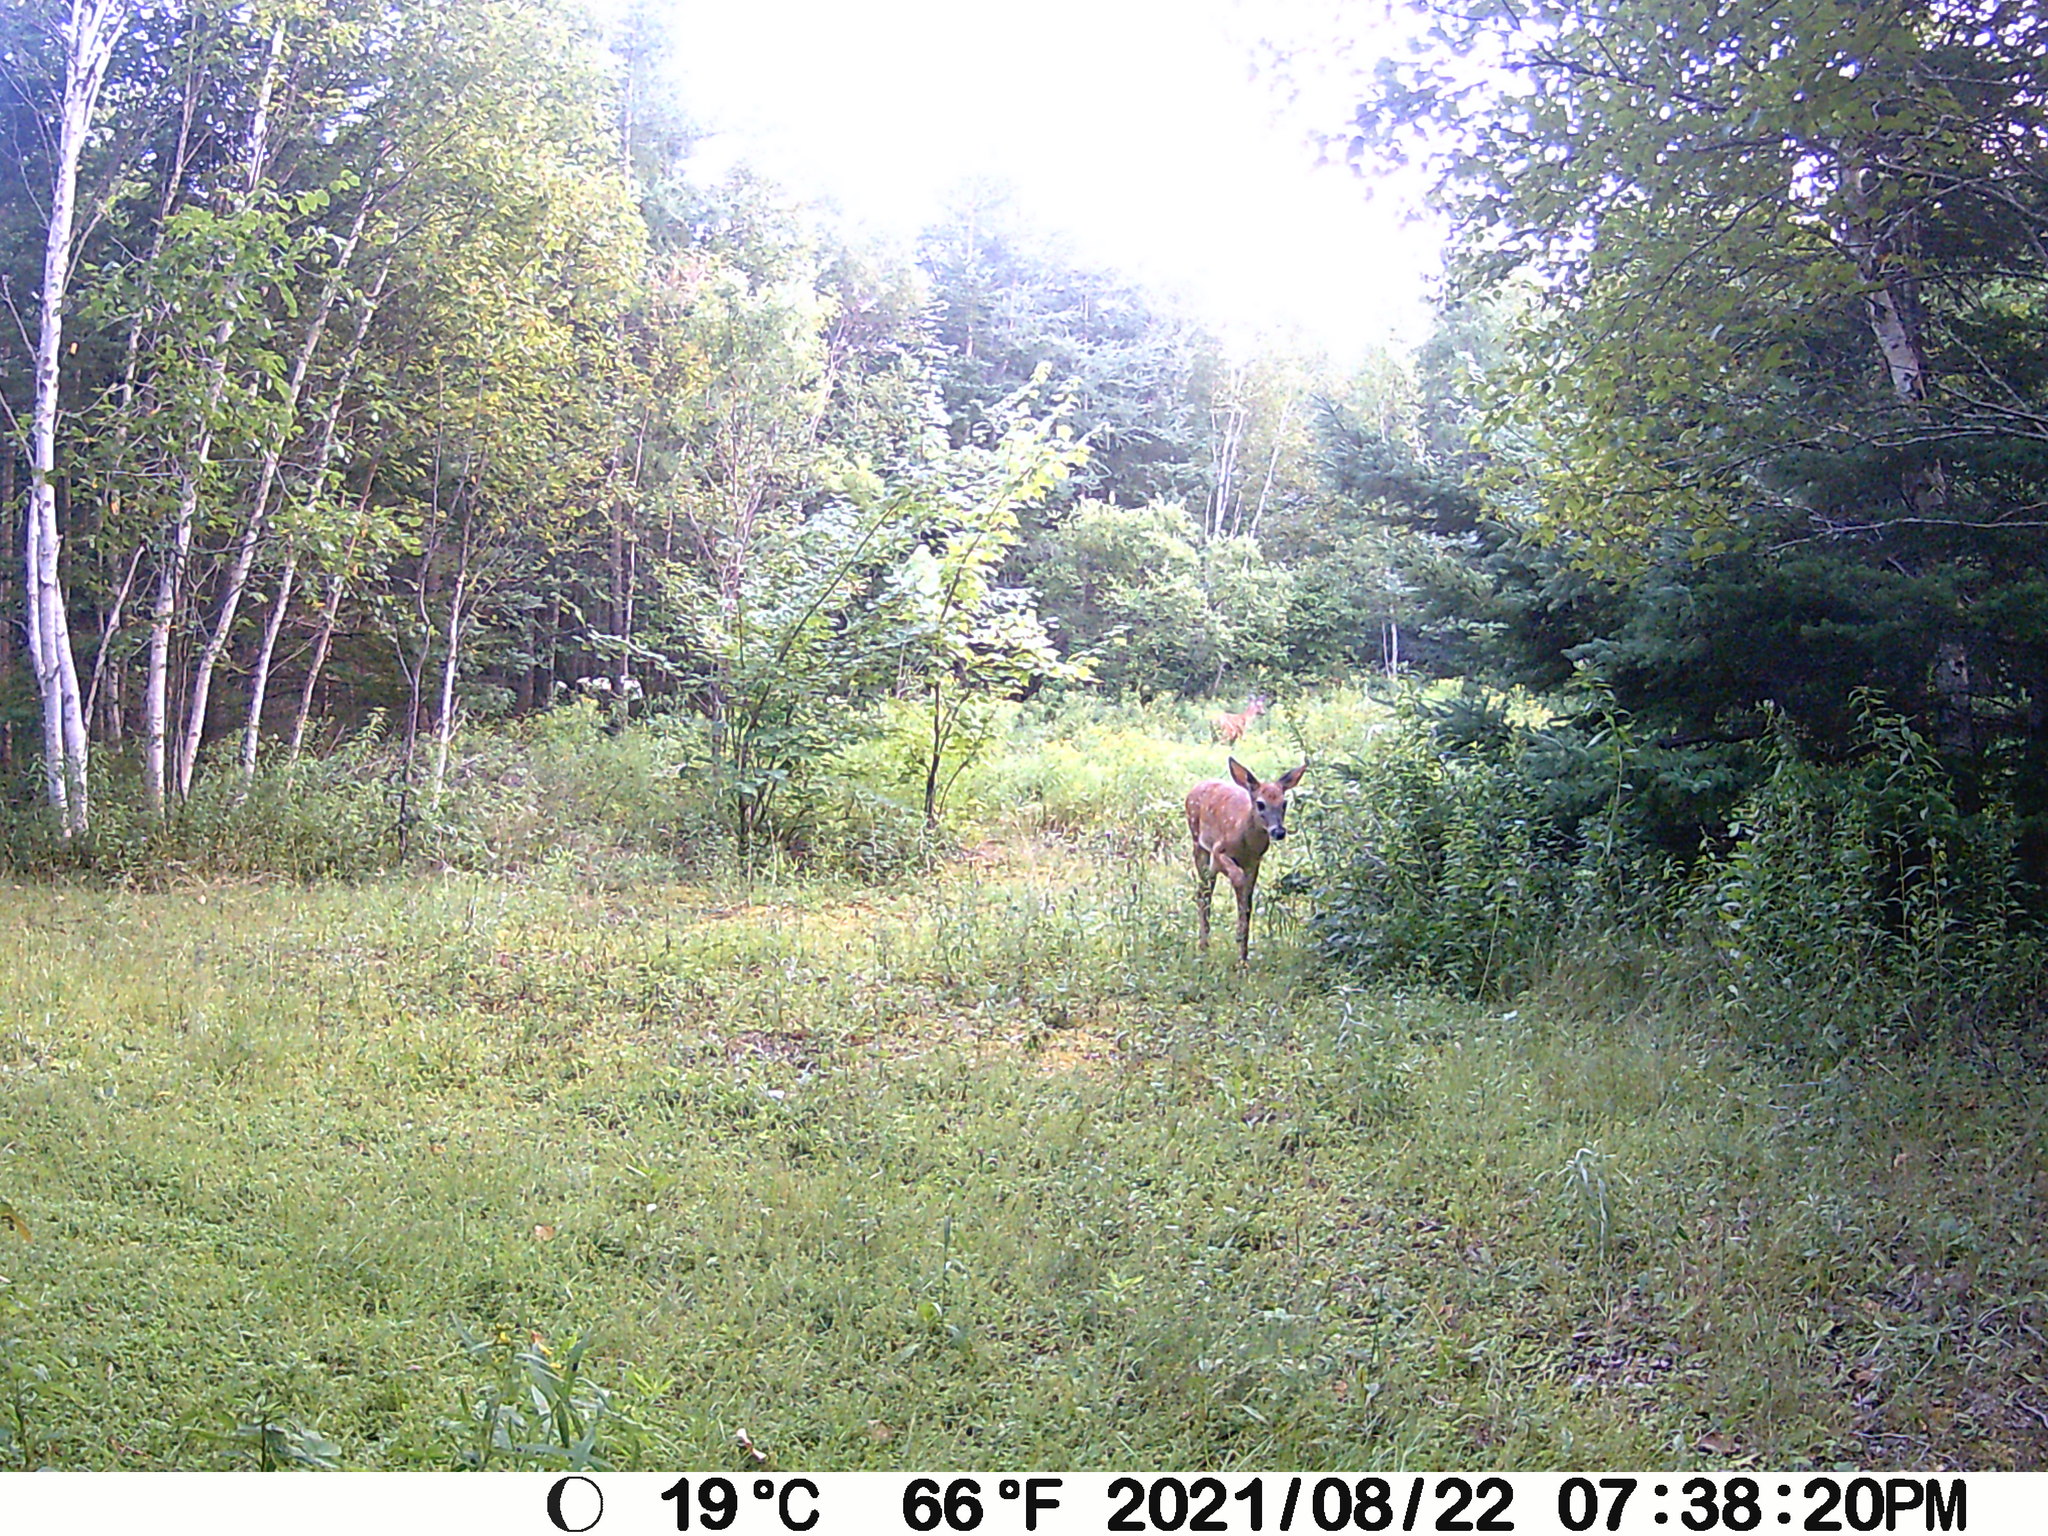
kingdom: Animalia
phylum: Chordata
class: Mammalia
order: Artiodactyla
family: Cervidae
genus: Odocoileus
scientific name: Odocoileus virginianus
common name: White-tailed deer
